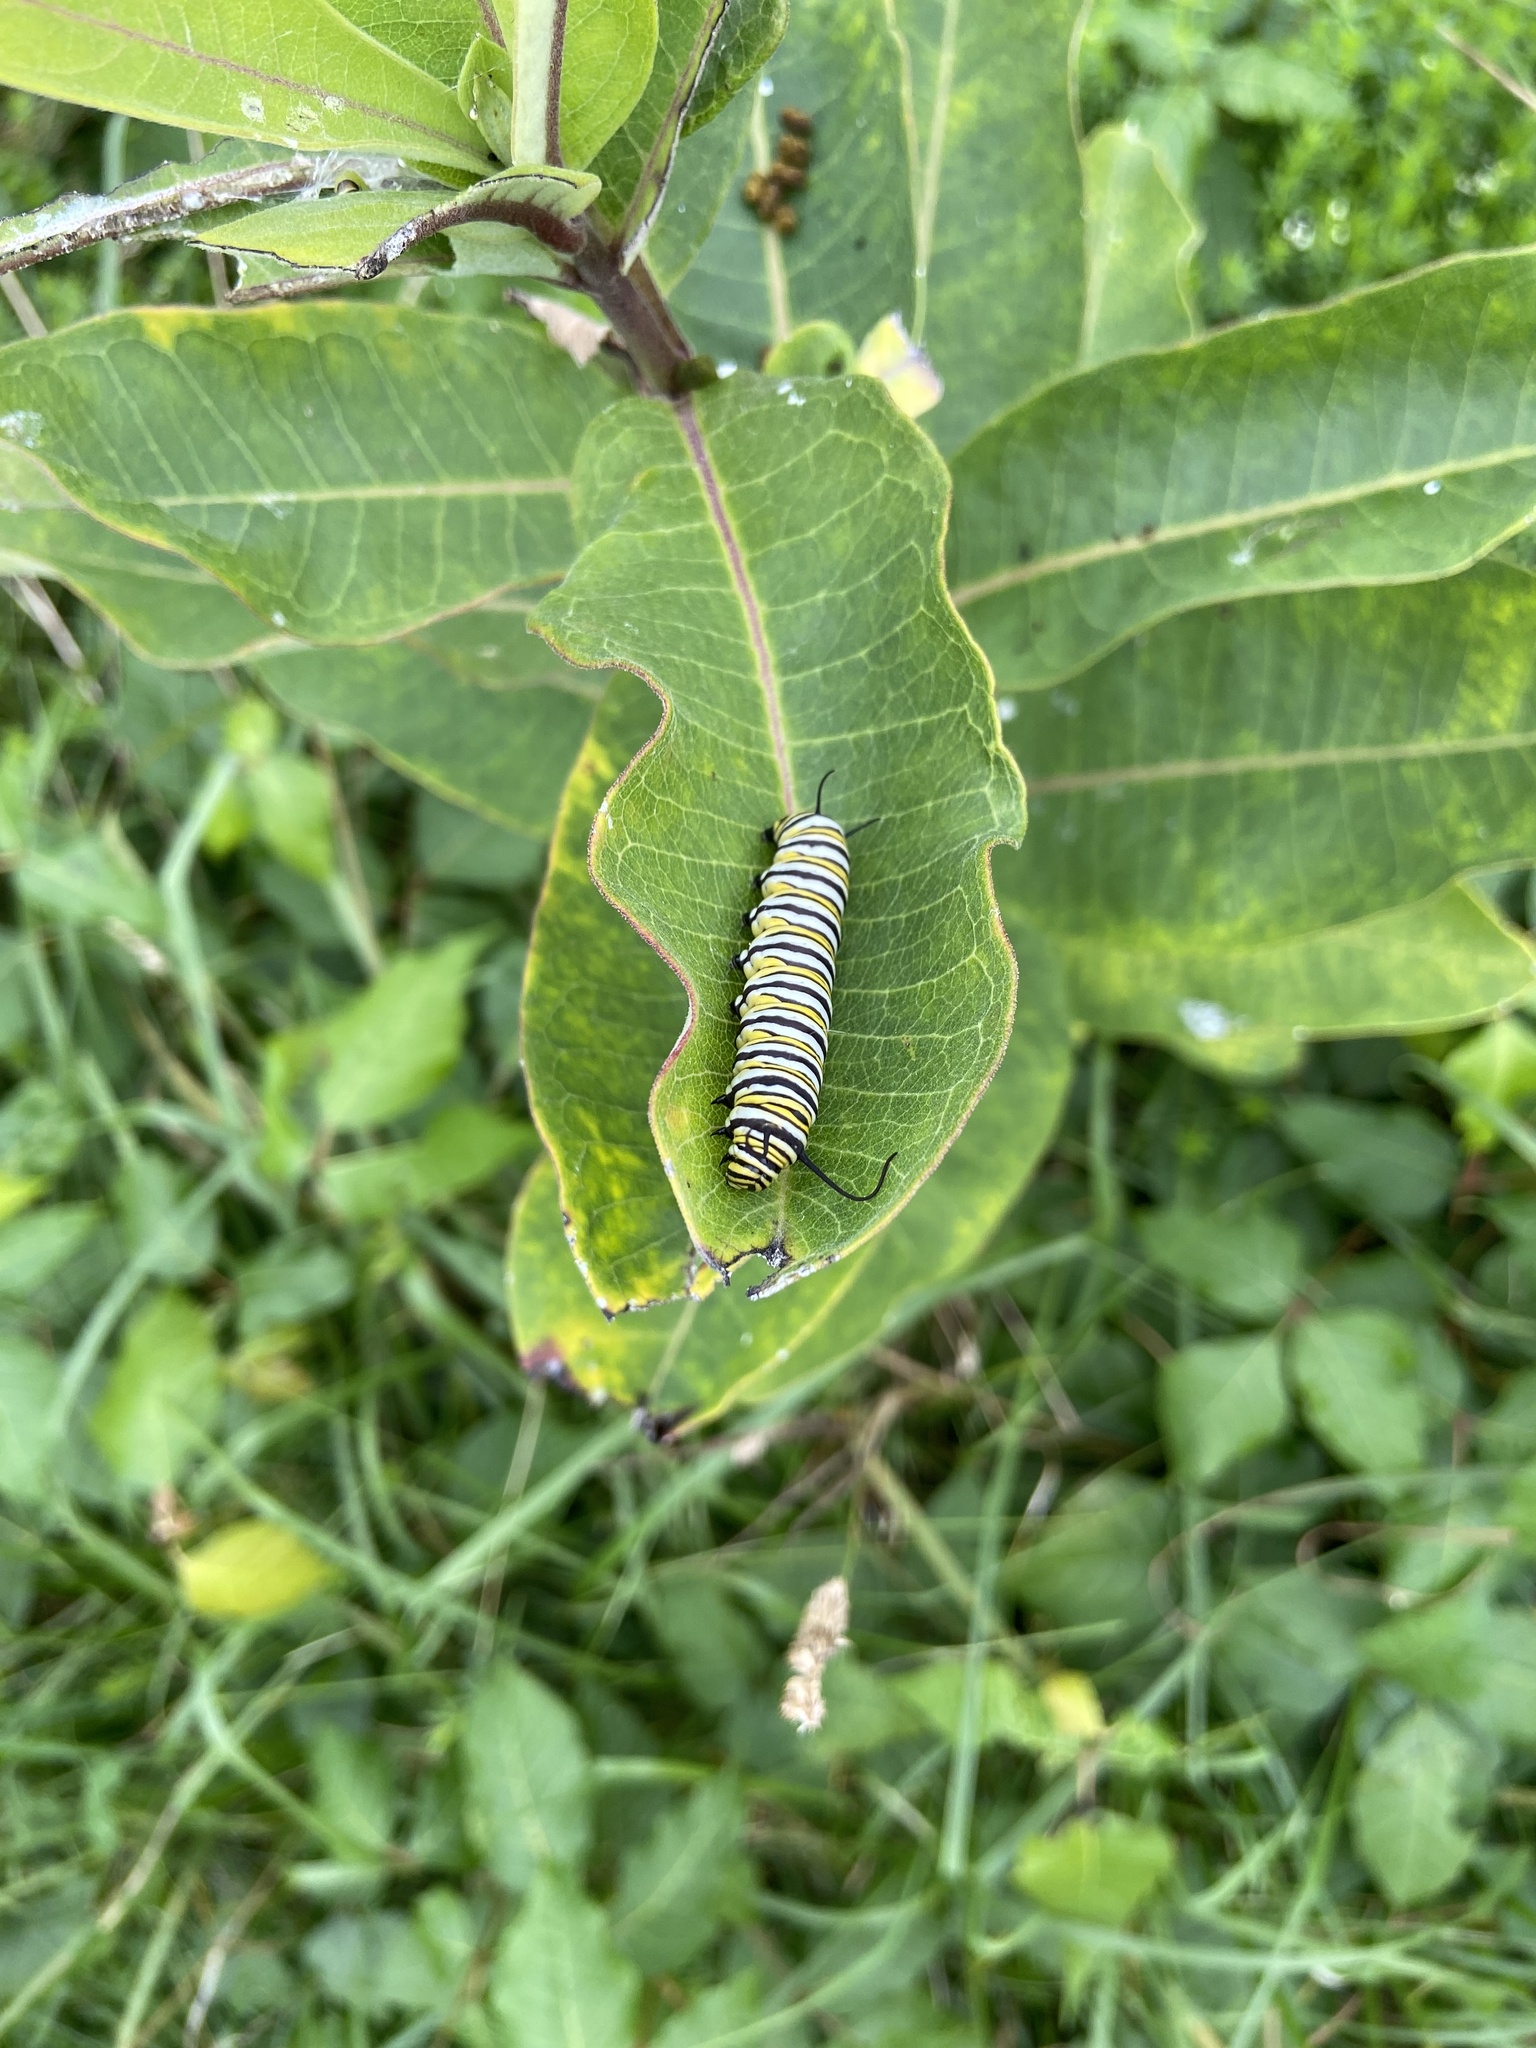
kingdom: Animalia
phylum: Arthropoda
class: Insecta
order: Lepidoptera
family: Nymphalidae
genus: Danaus
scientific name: Danaus plexippus
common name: Monarch
